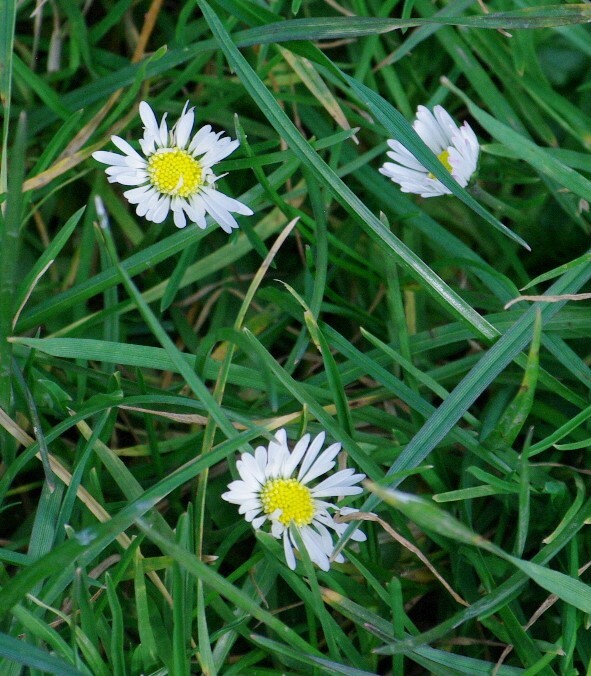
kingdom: Plantae
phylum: Tracheophyta
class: Magnoliopsida
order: Asterales
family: Asteraceae
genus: Bellis
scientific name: Bellis perennis
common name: Lawndaisy
